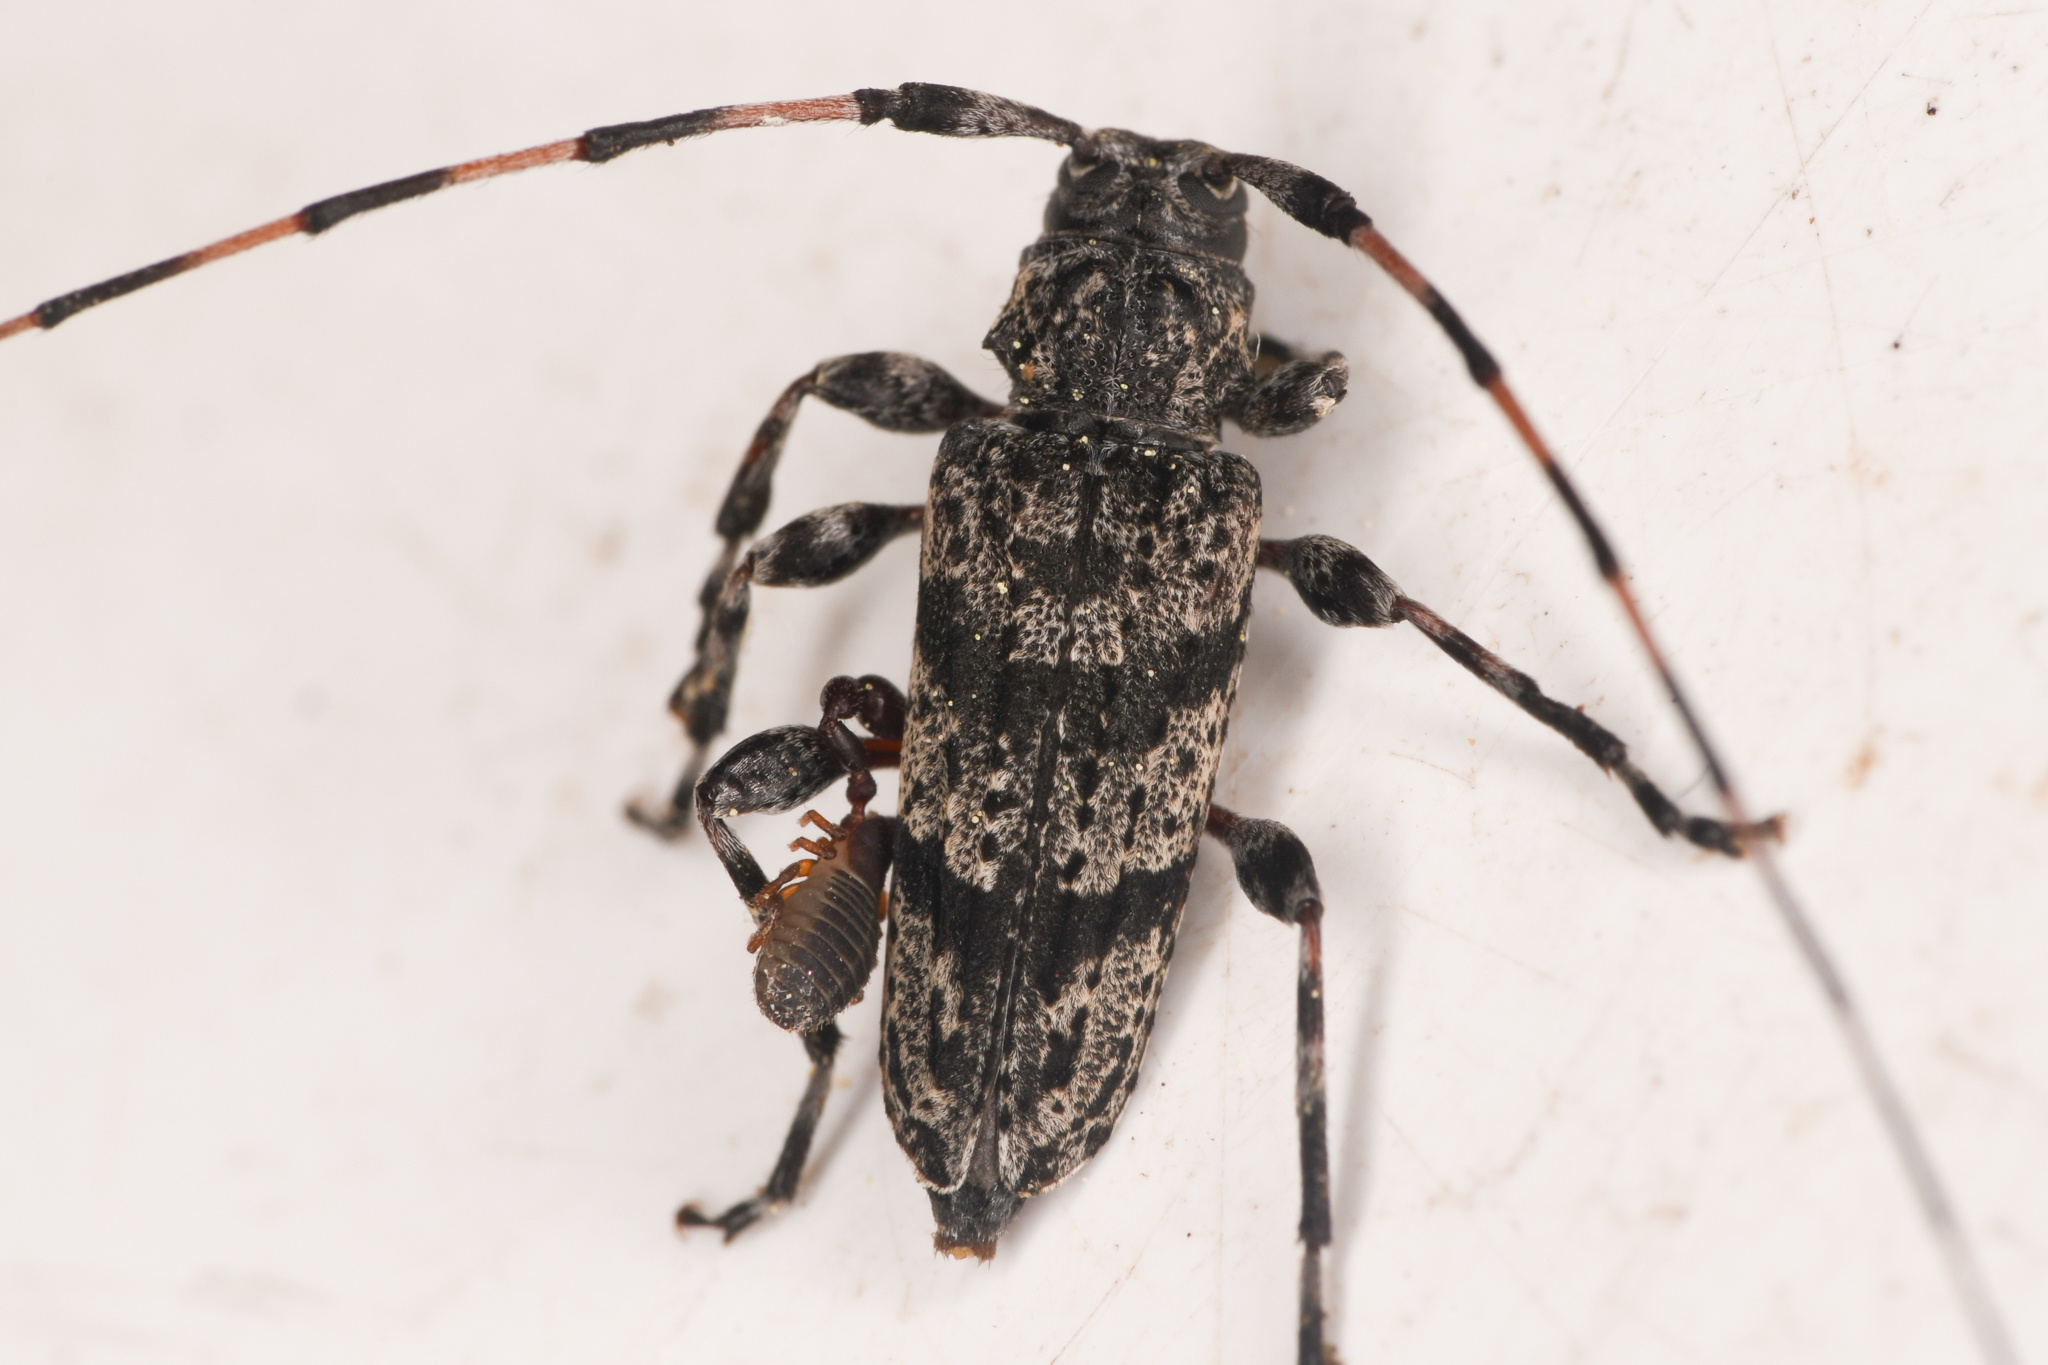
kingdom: Animalia
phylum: Arthropoda
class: Insecta
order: Coleoptera
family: Cerambycidae
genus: Acanthocinus
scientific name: Acanthocinus obliquus
